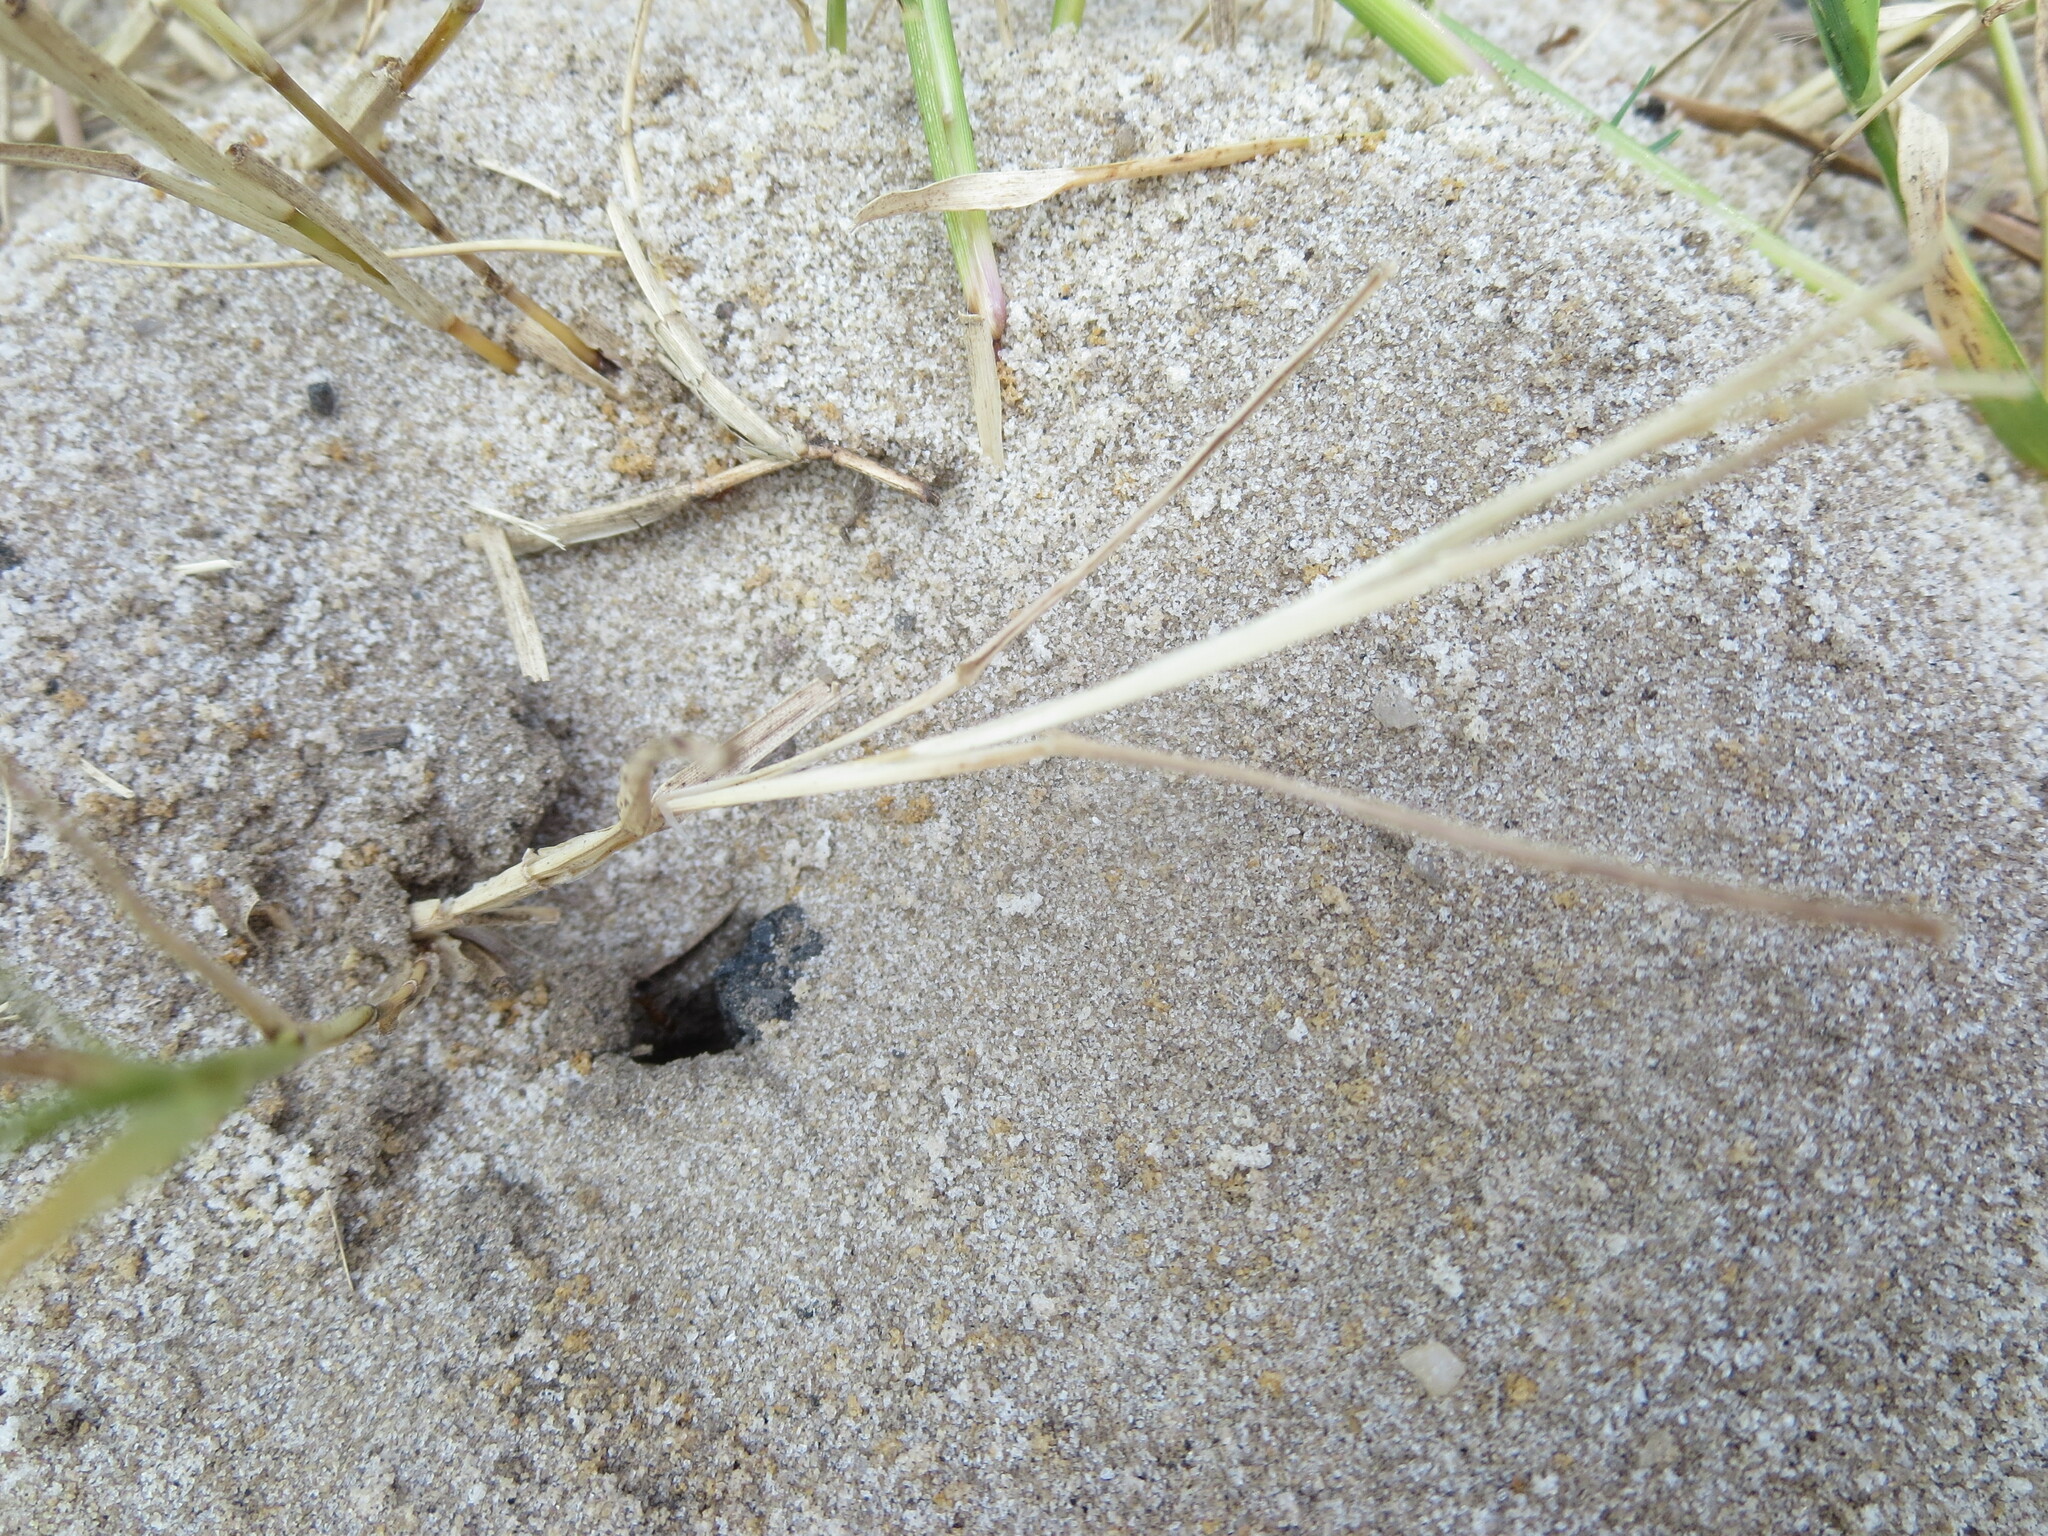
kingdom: Animalia
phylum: Arthropoda
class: Insecta
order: Hymenoptera
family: Formicidae
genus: Dorymyrmex
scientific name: Dorymyrmex bureni
